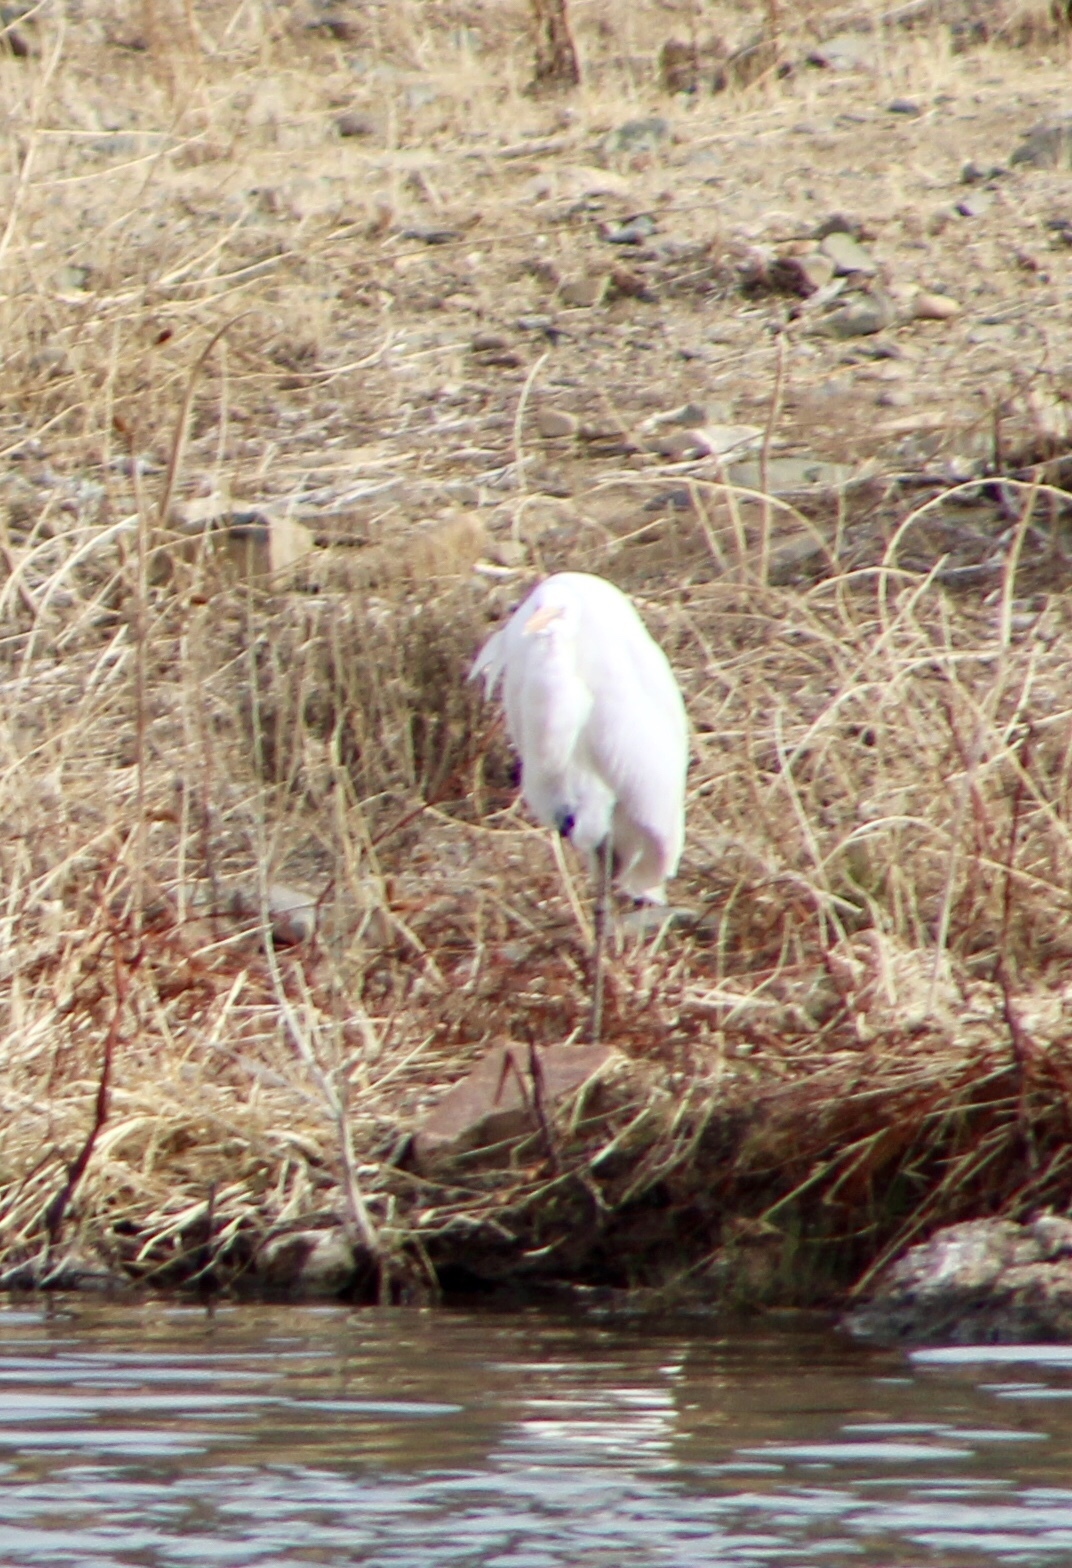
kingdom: Animalia
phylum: Chordata
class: Aves
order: Pelecaniformes
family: Ardeidae
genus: Ardea
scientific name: Ardea alba
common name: Great egret
